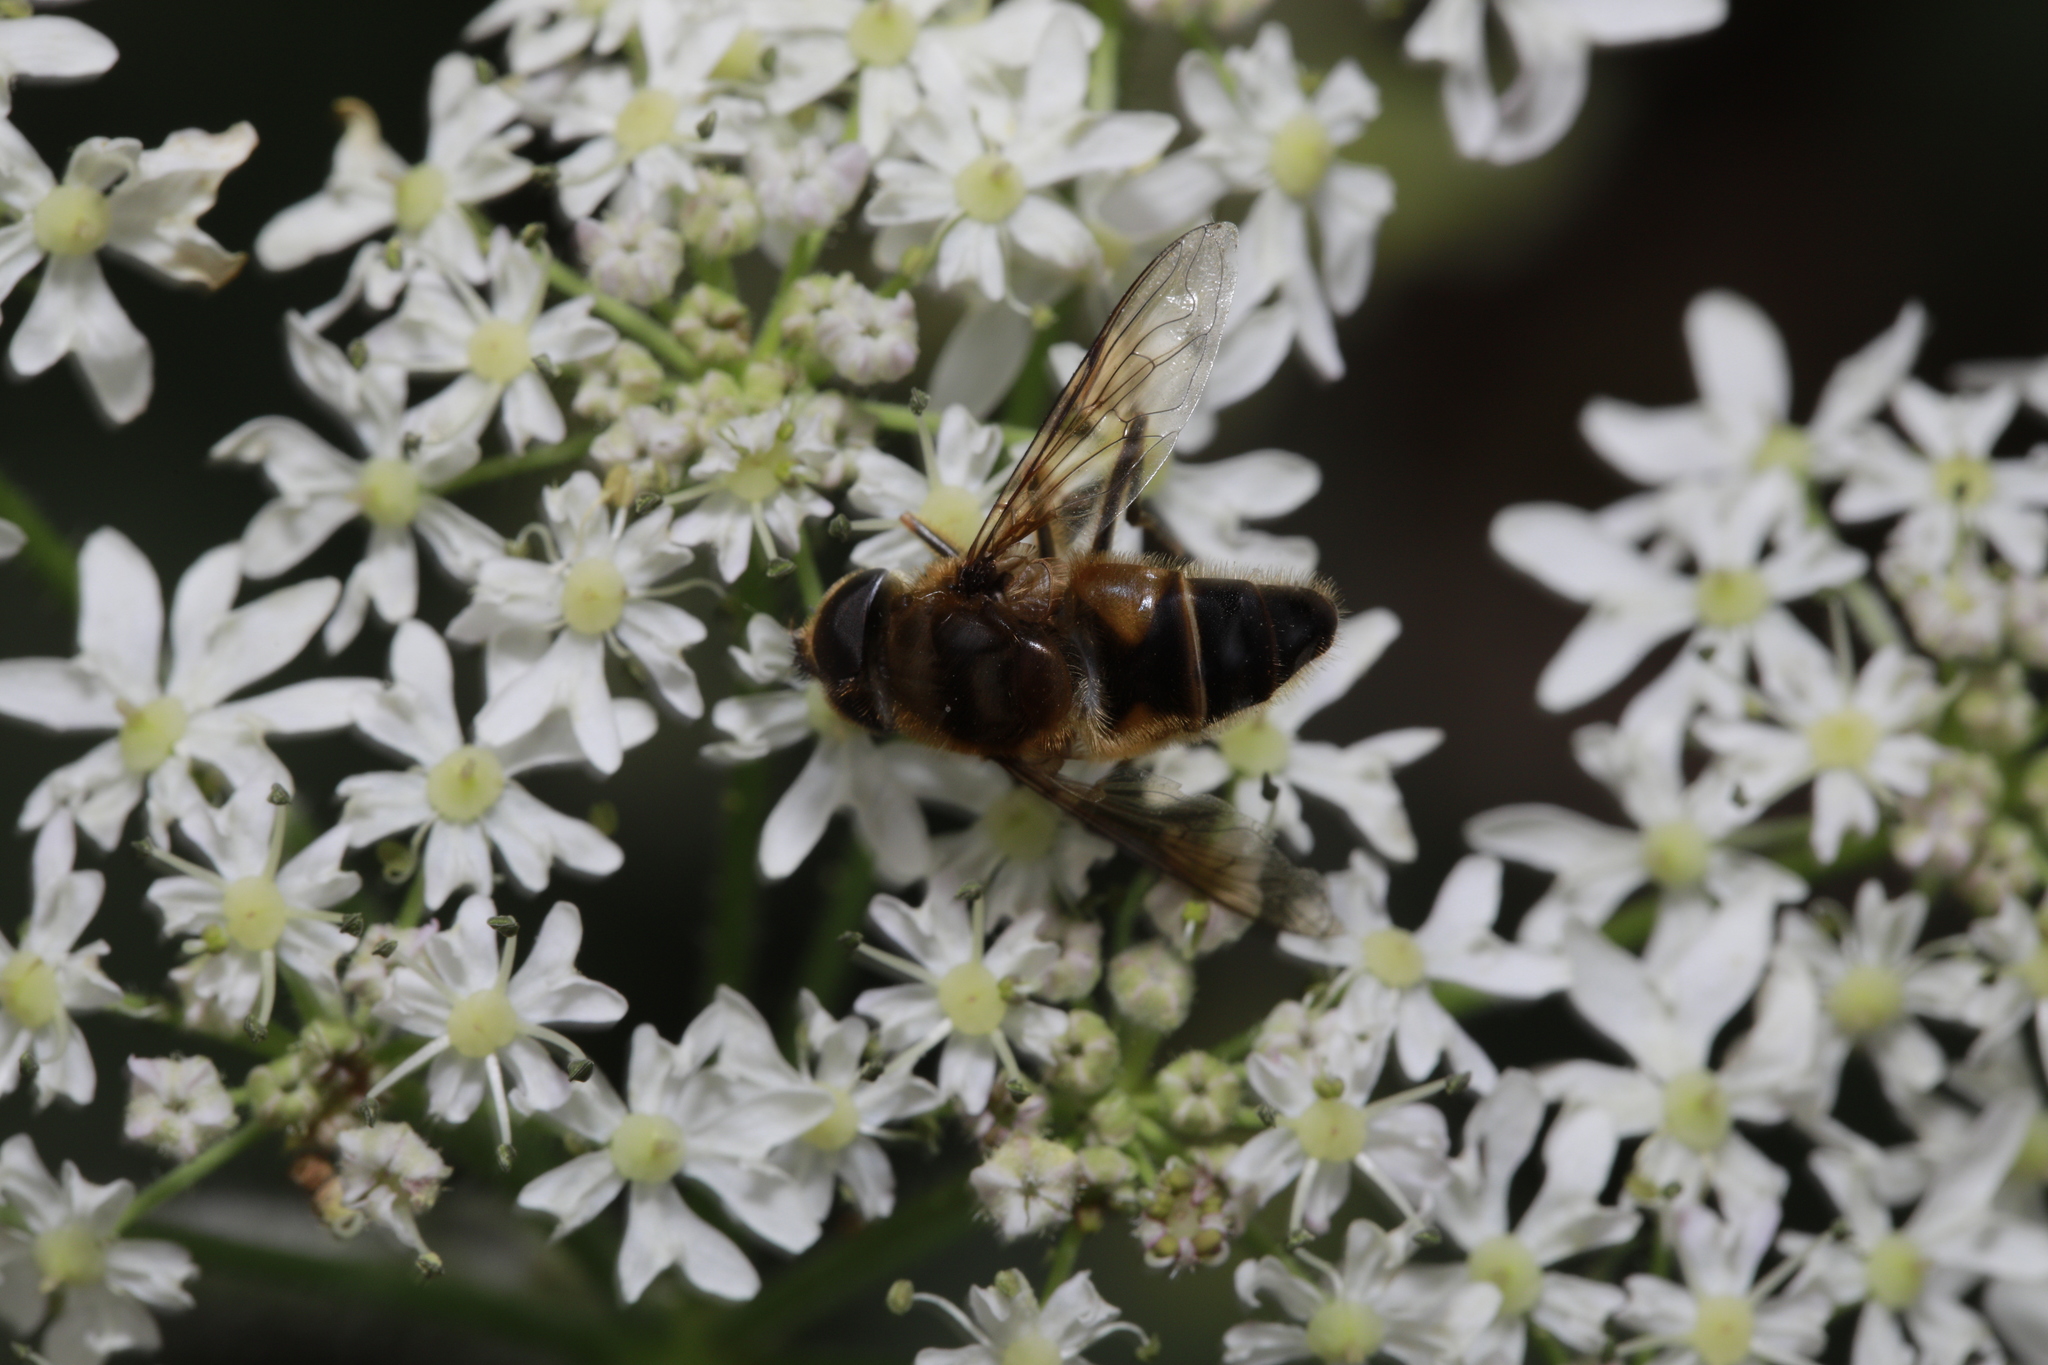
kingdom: Animalia
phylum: Arthropoda
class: Insecta
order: Diptera
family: Syrphidae
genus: Eristalis
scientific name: Eristalis pertinax
